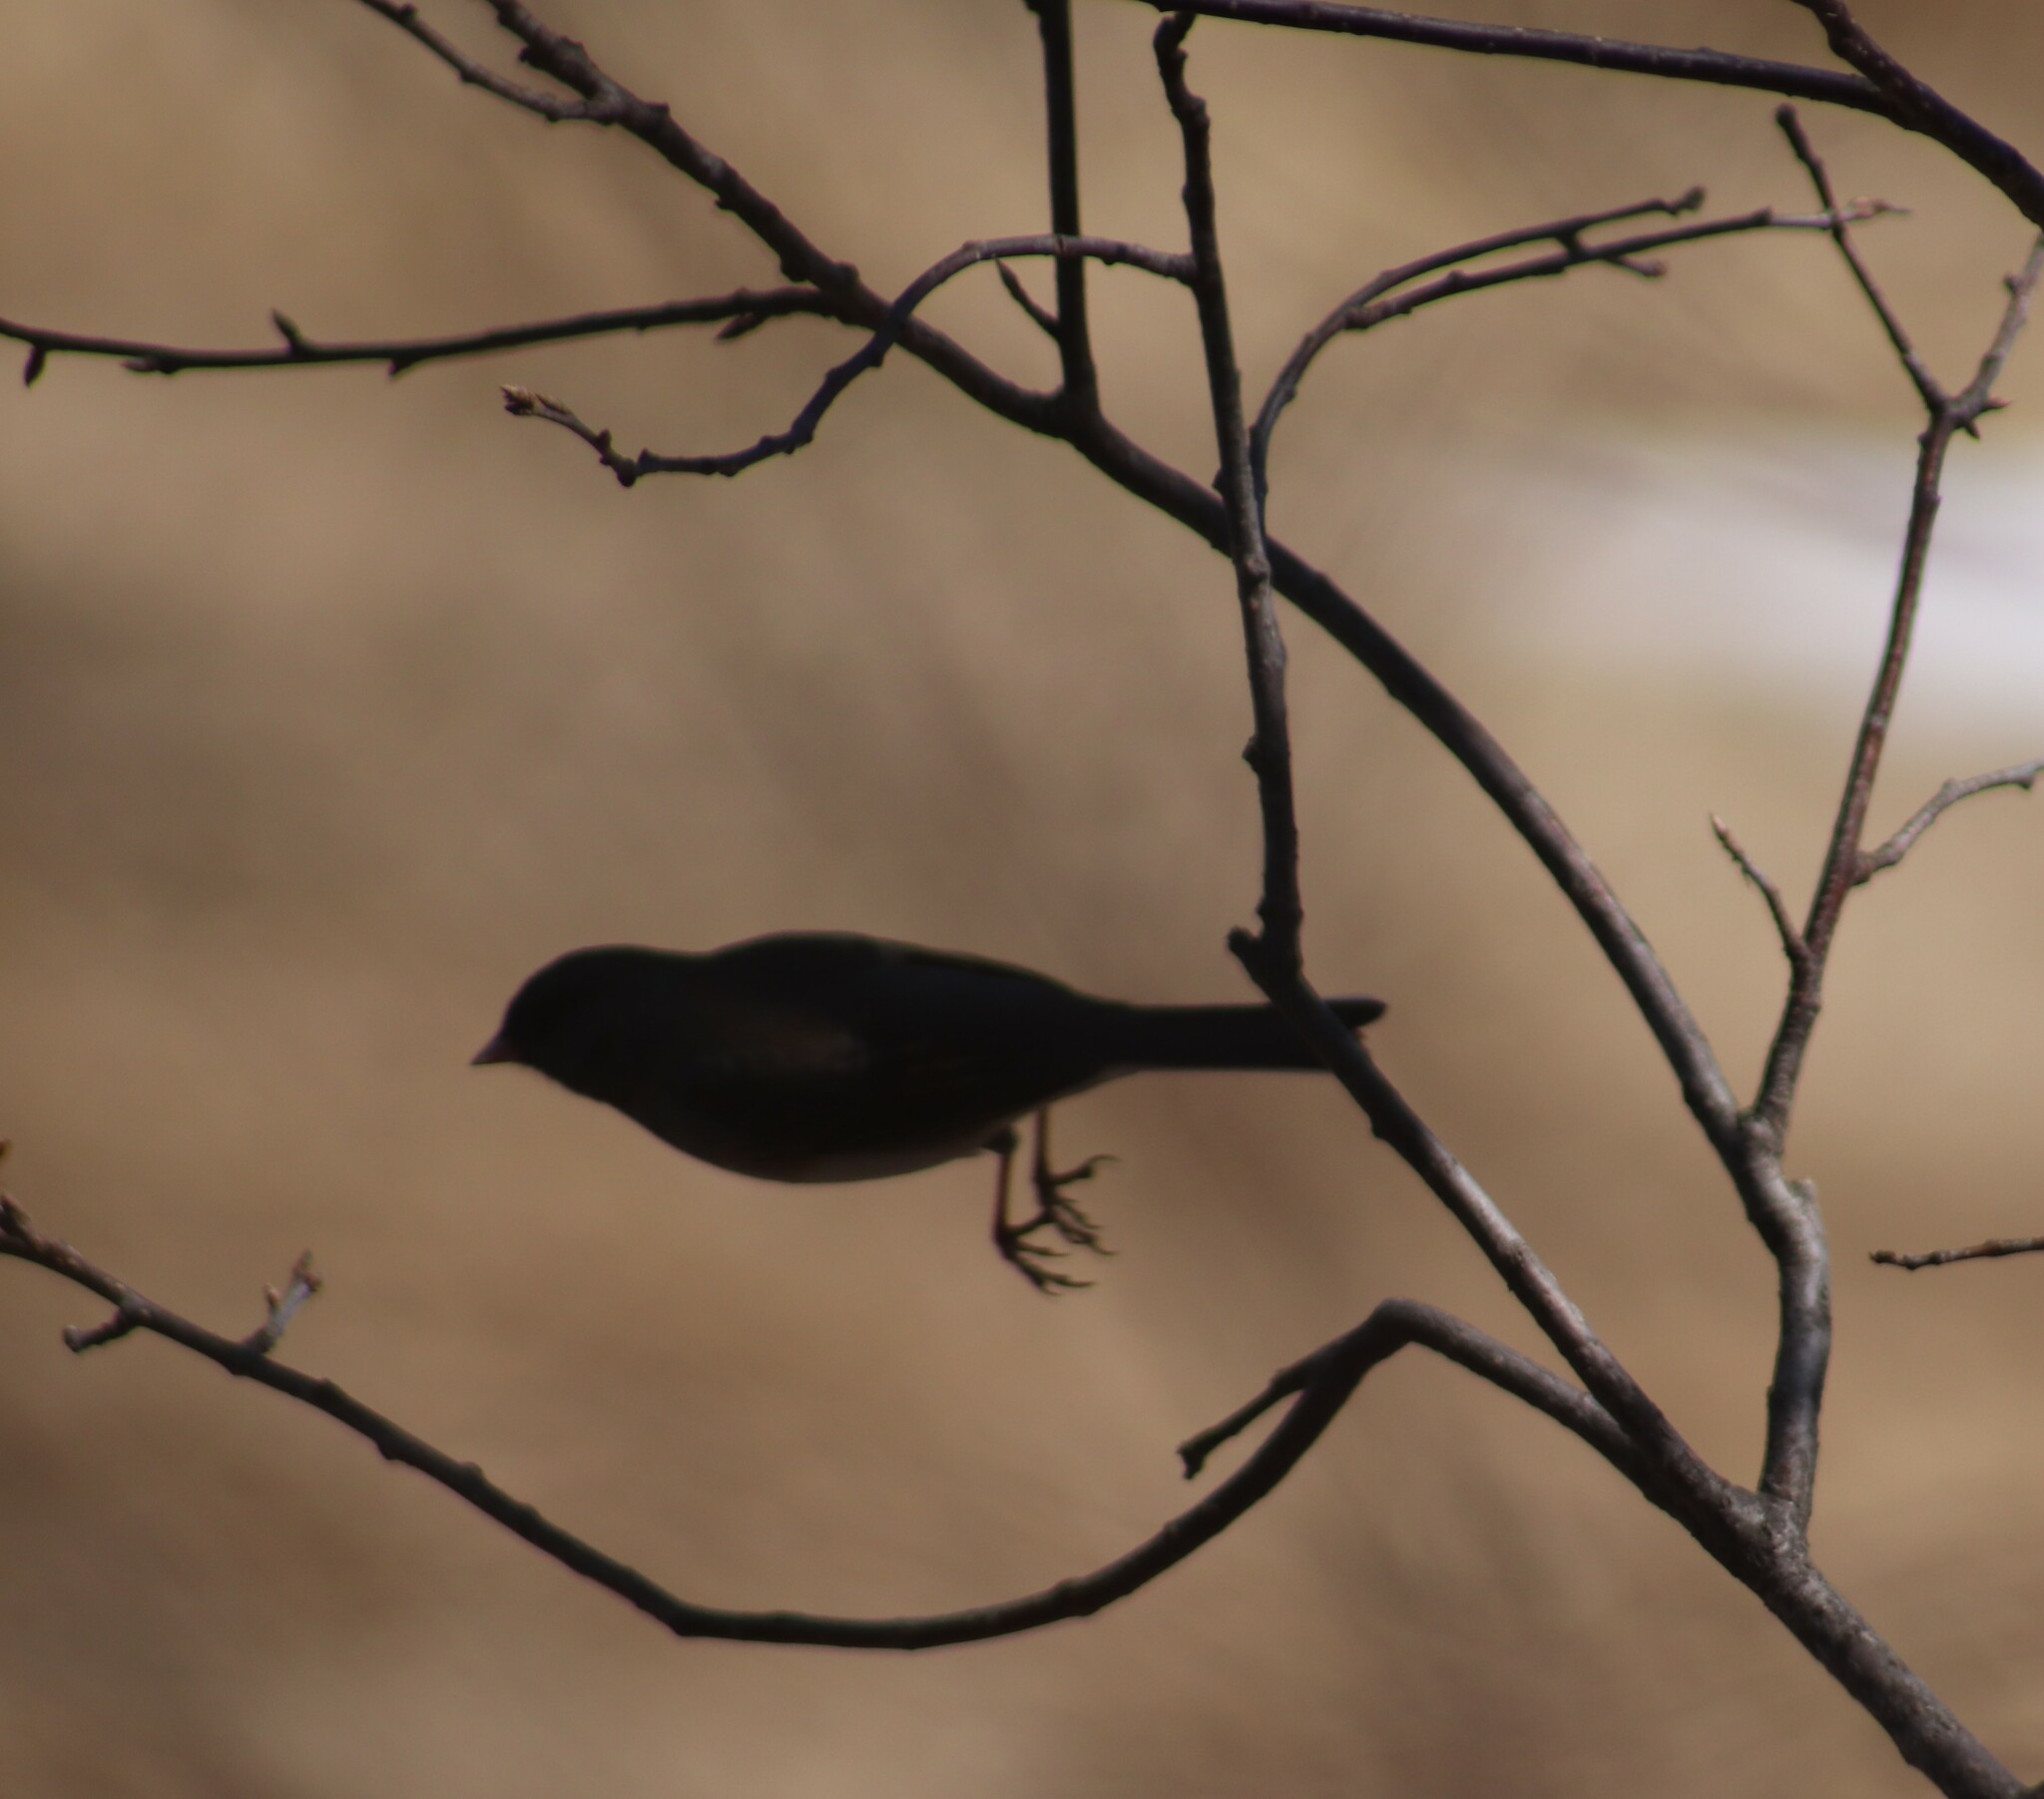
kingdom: Animalia
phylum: Chordata
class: Aves
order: Passeriformes
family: Passerellidae
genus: Junco
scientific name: Junco hyemalis
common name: Dark-eyed junco
